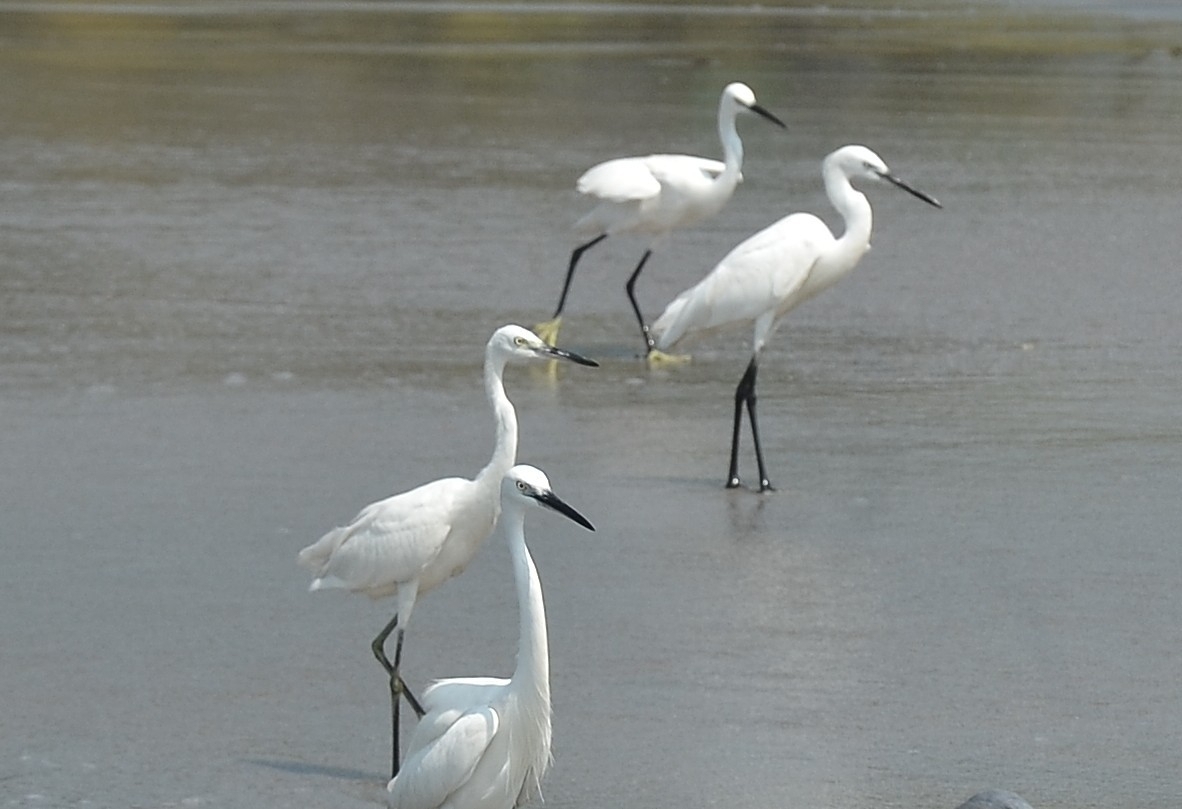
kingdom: Animalia
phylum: Chordata
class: Aves
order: Pelecaniformes
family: Ardeidae
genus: Egretta
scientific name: Egretta garzetta
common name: Little egret
